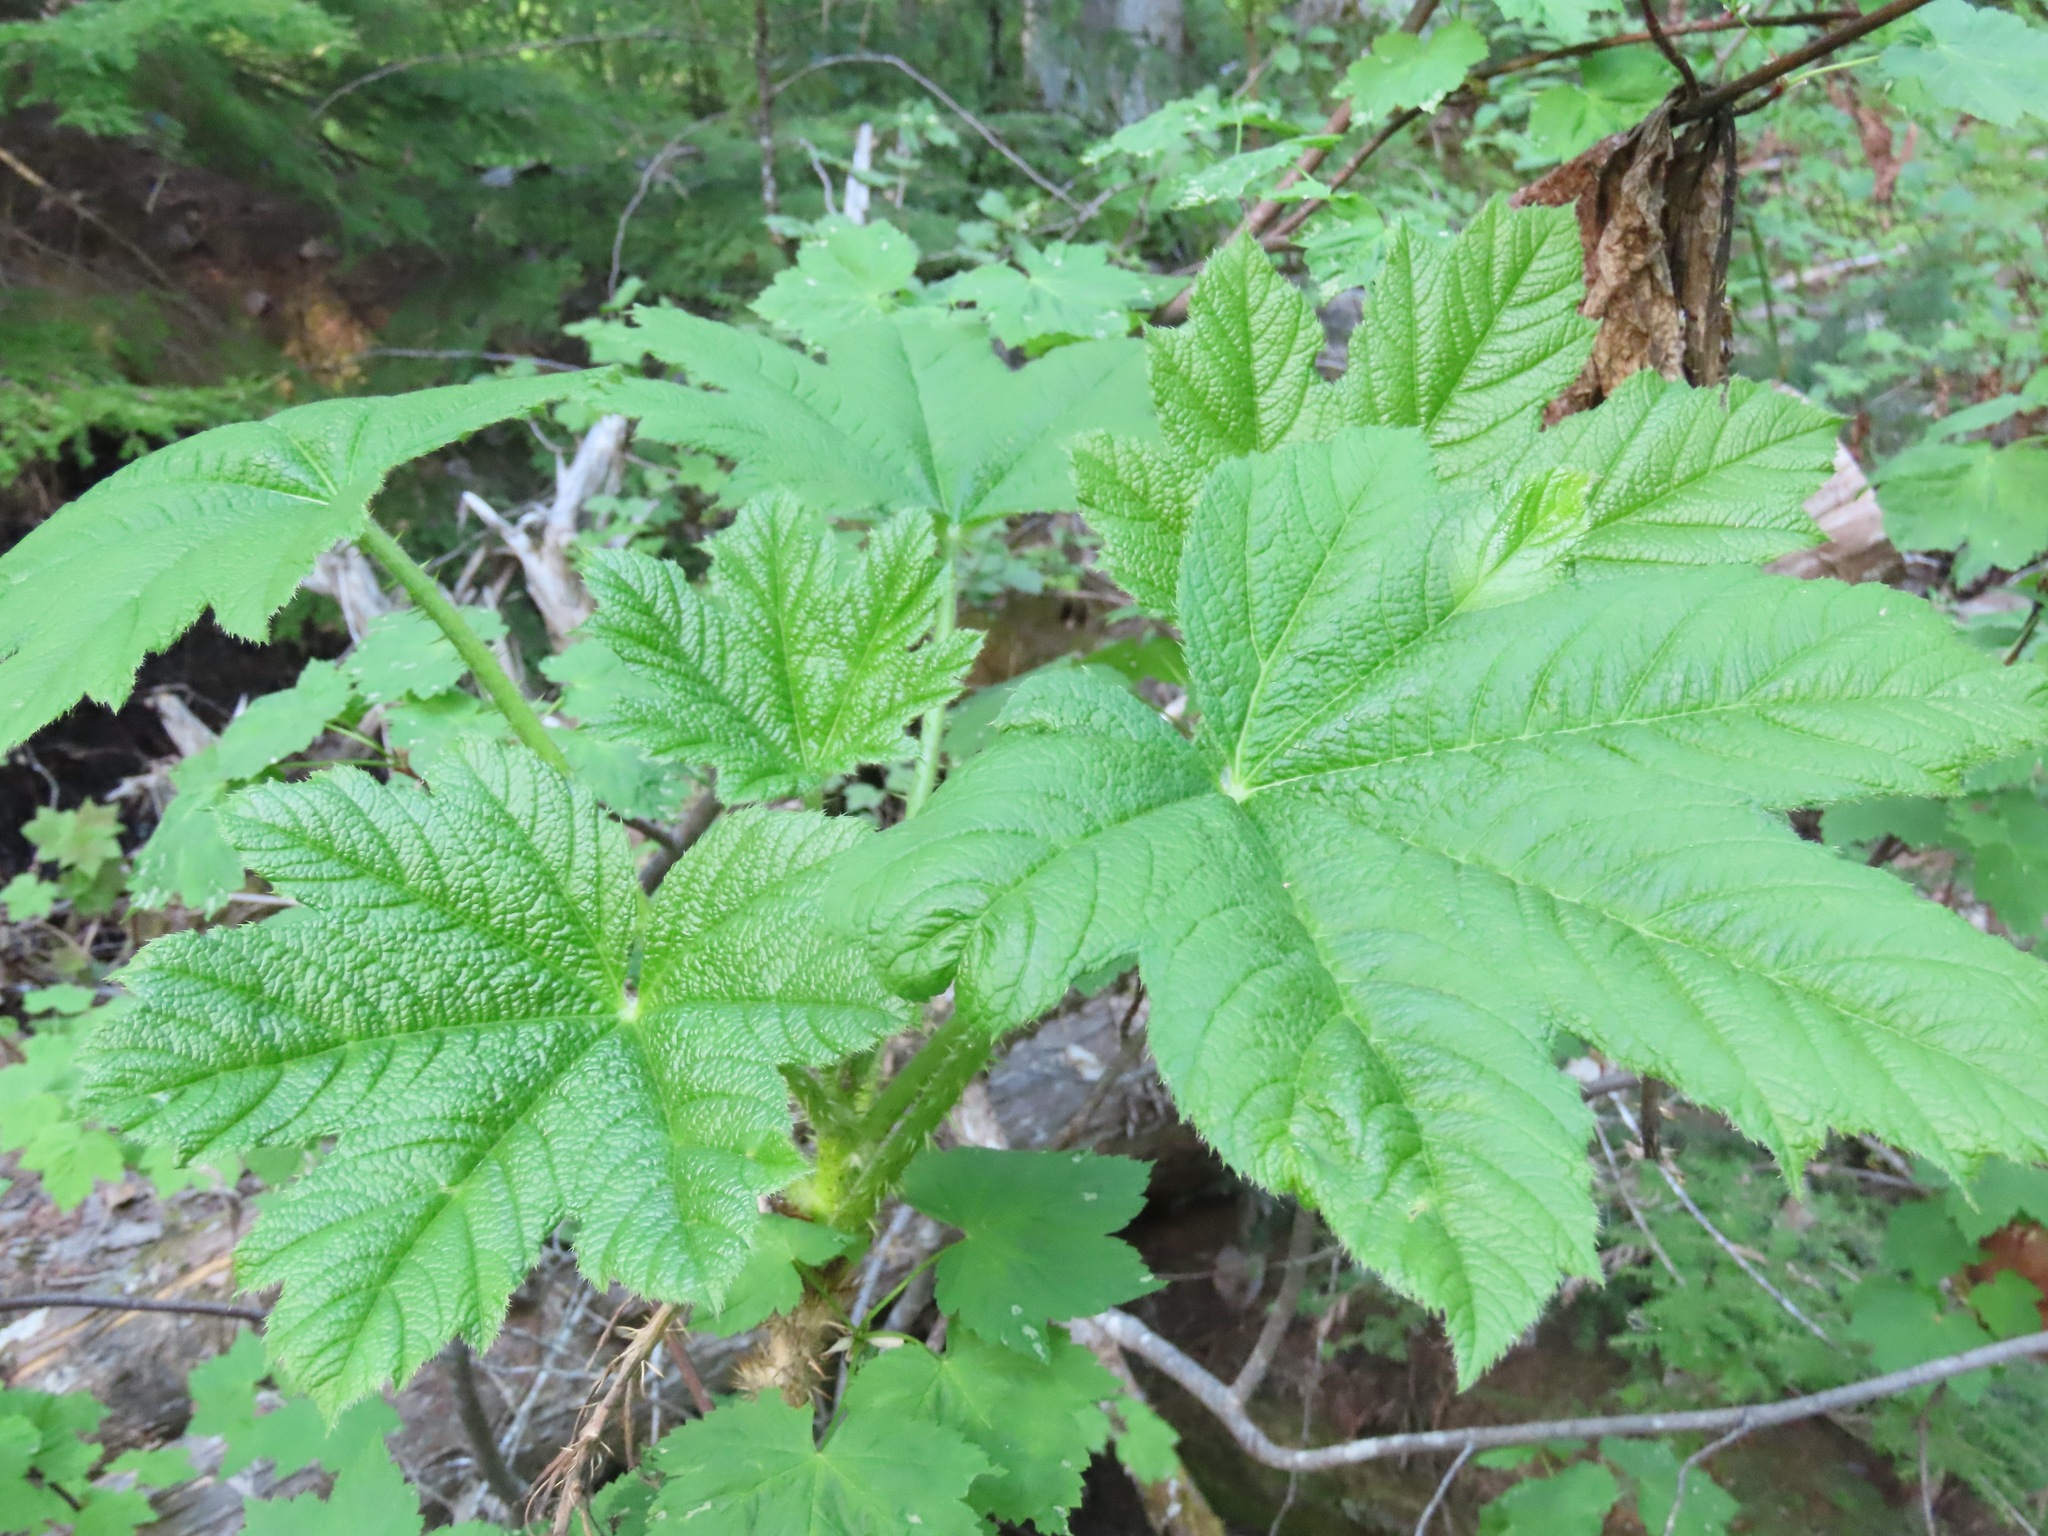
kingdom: Plantae
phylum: Tracheophyta
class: Magnoliopsida
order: Apiales
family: Araliaceae
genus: Oplopanax
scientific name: Oplopanax horridus
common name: Devil's walking-stick
